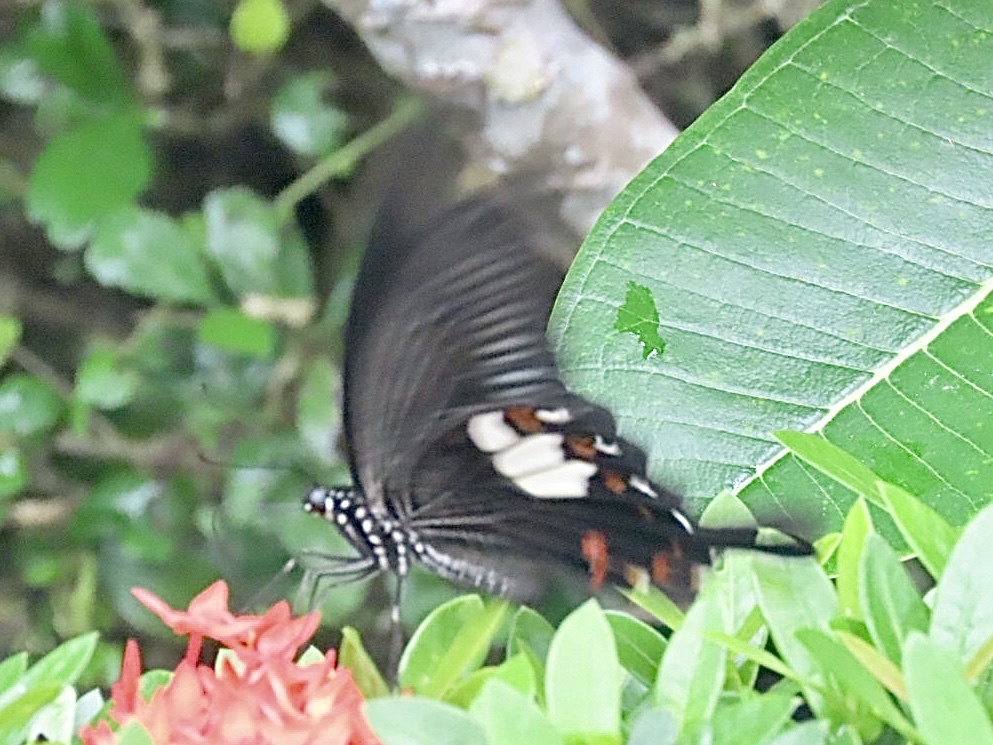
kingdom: Animalia
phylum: Arthropoda
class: Insecta
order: Lepidoptera
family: Papilionidae
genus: Papilio
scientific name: Papilio helenus
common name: Red helen
